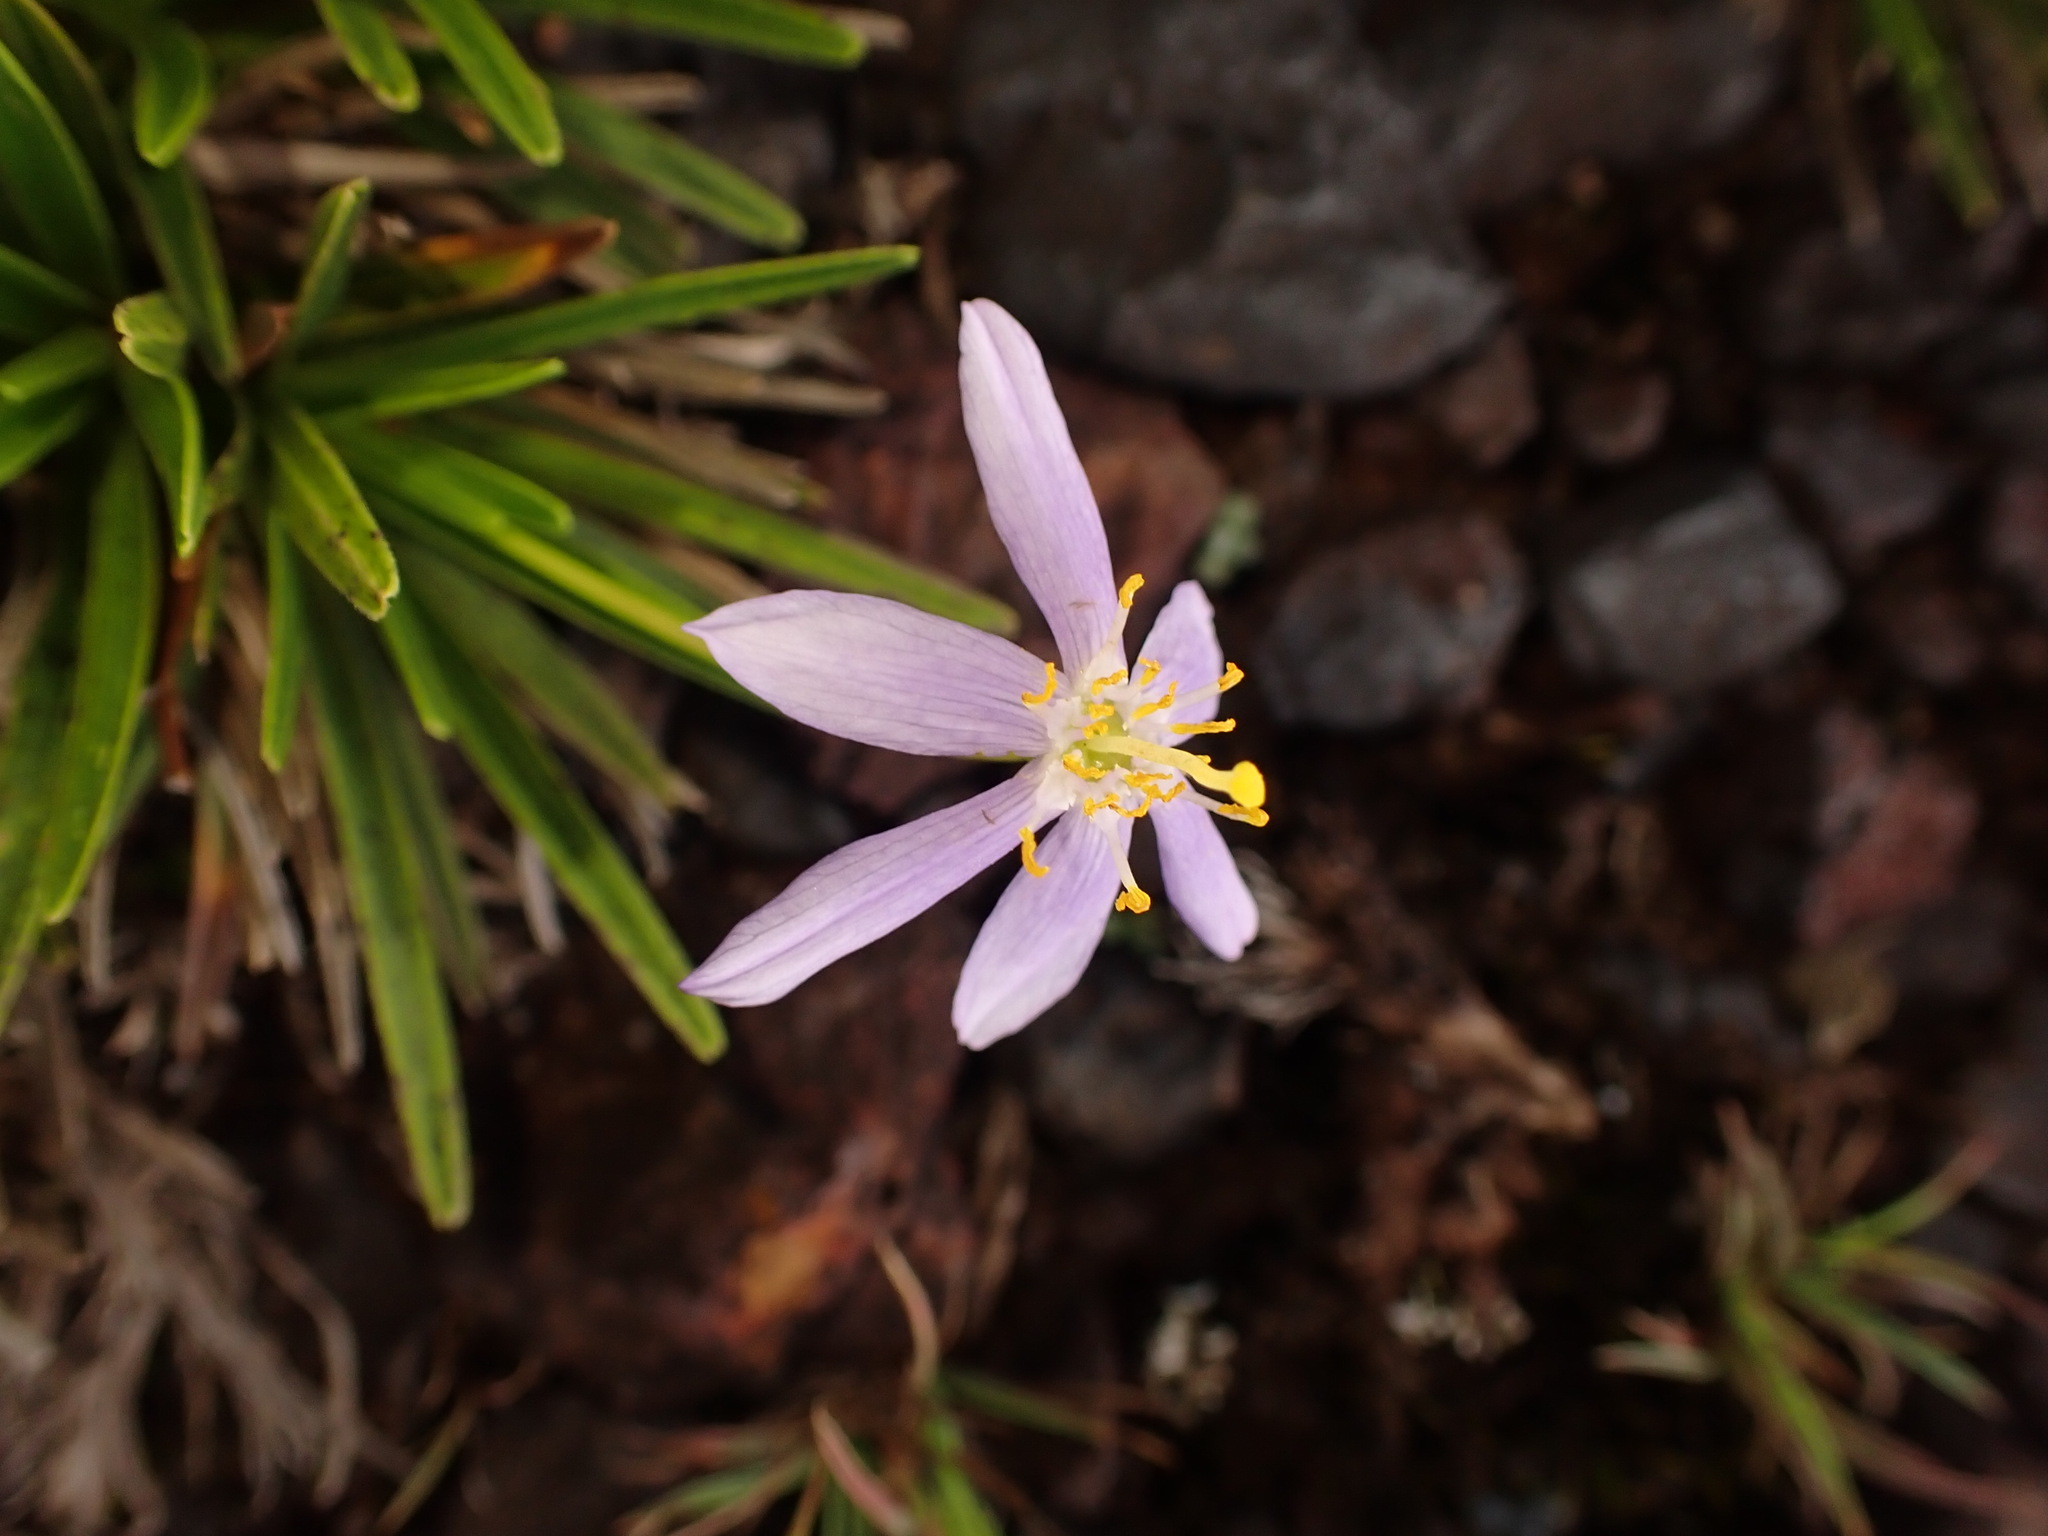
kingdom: Plantae
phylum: Tracheophyta
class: Liliopsida
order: Pandanales
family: Velloziaceae
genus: Vellozia
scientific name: Vellozia graminea
